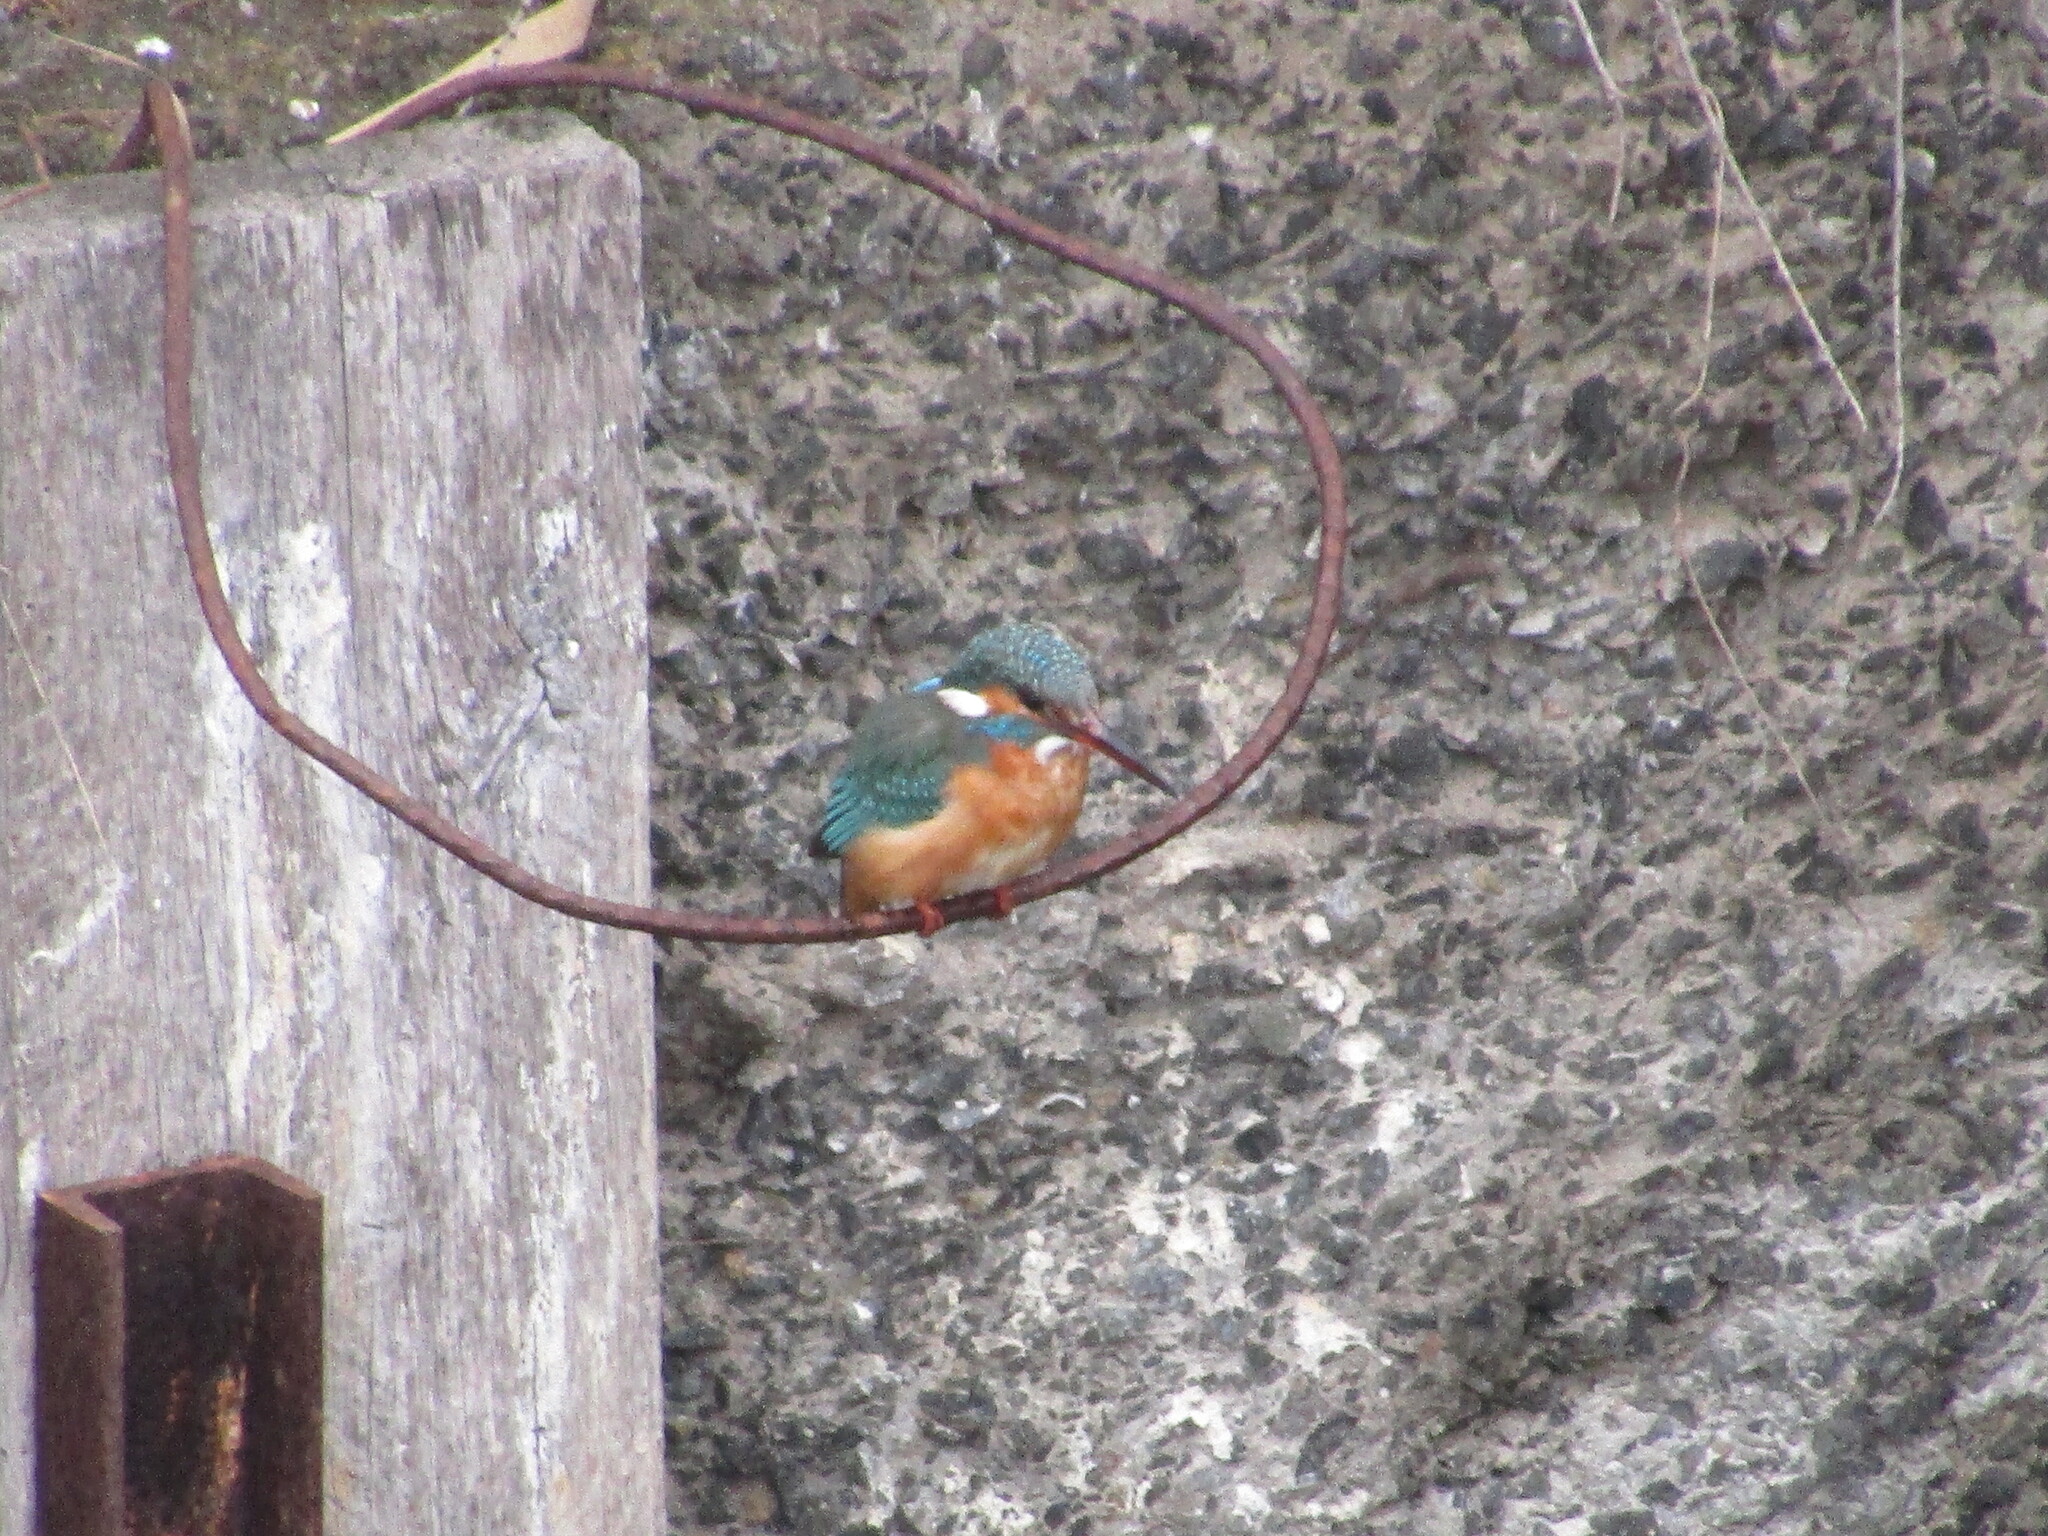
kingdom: Animalia
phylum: Chordata
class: Aves
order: Coraciiformes
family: Alcedinidae
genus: Alcedo
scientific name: Alcedo atthis
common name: Common kingfisher
